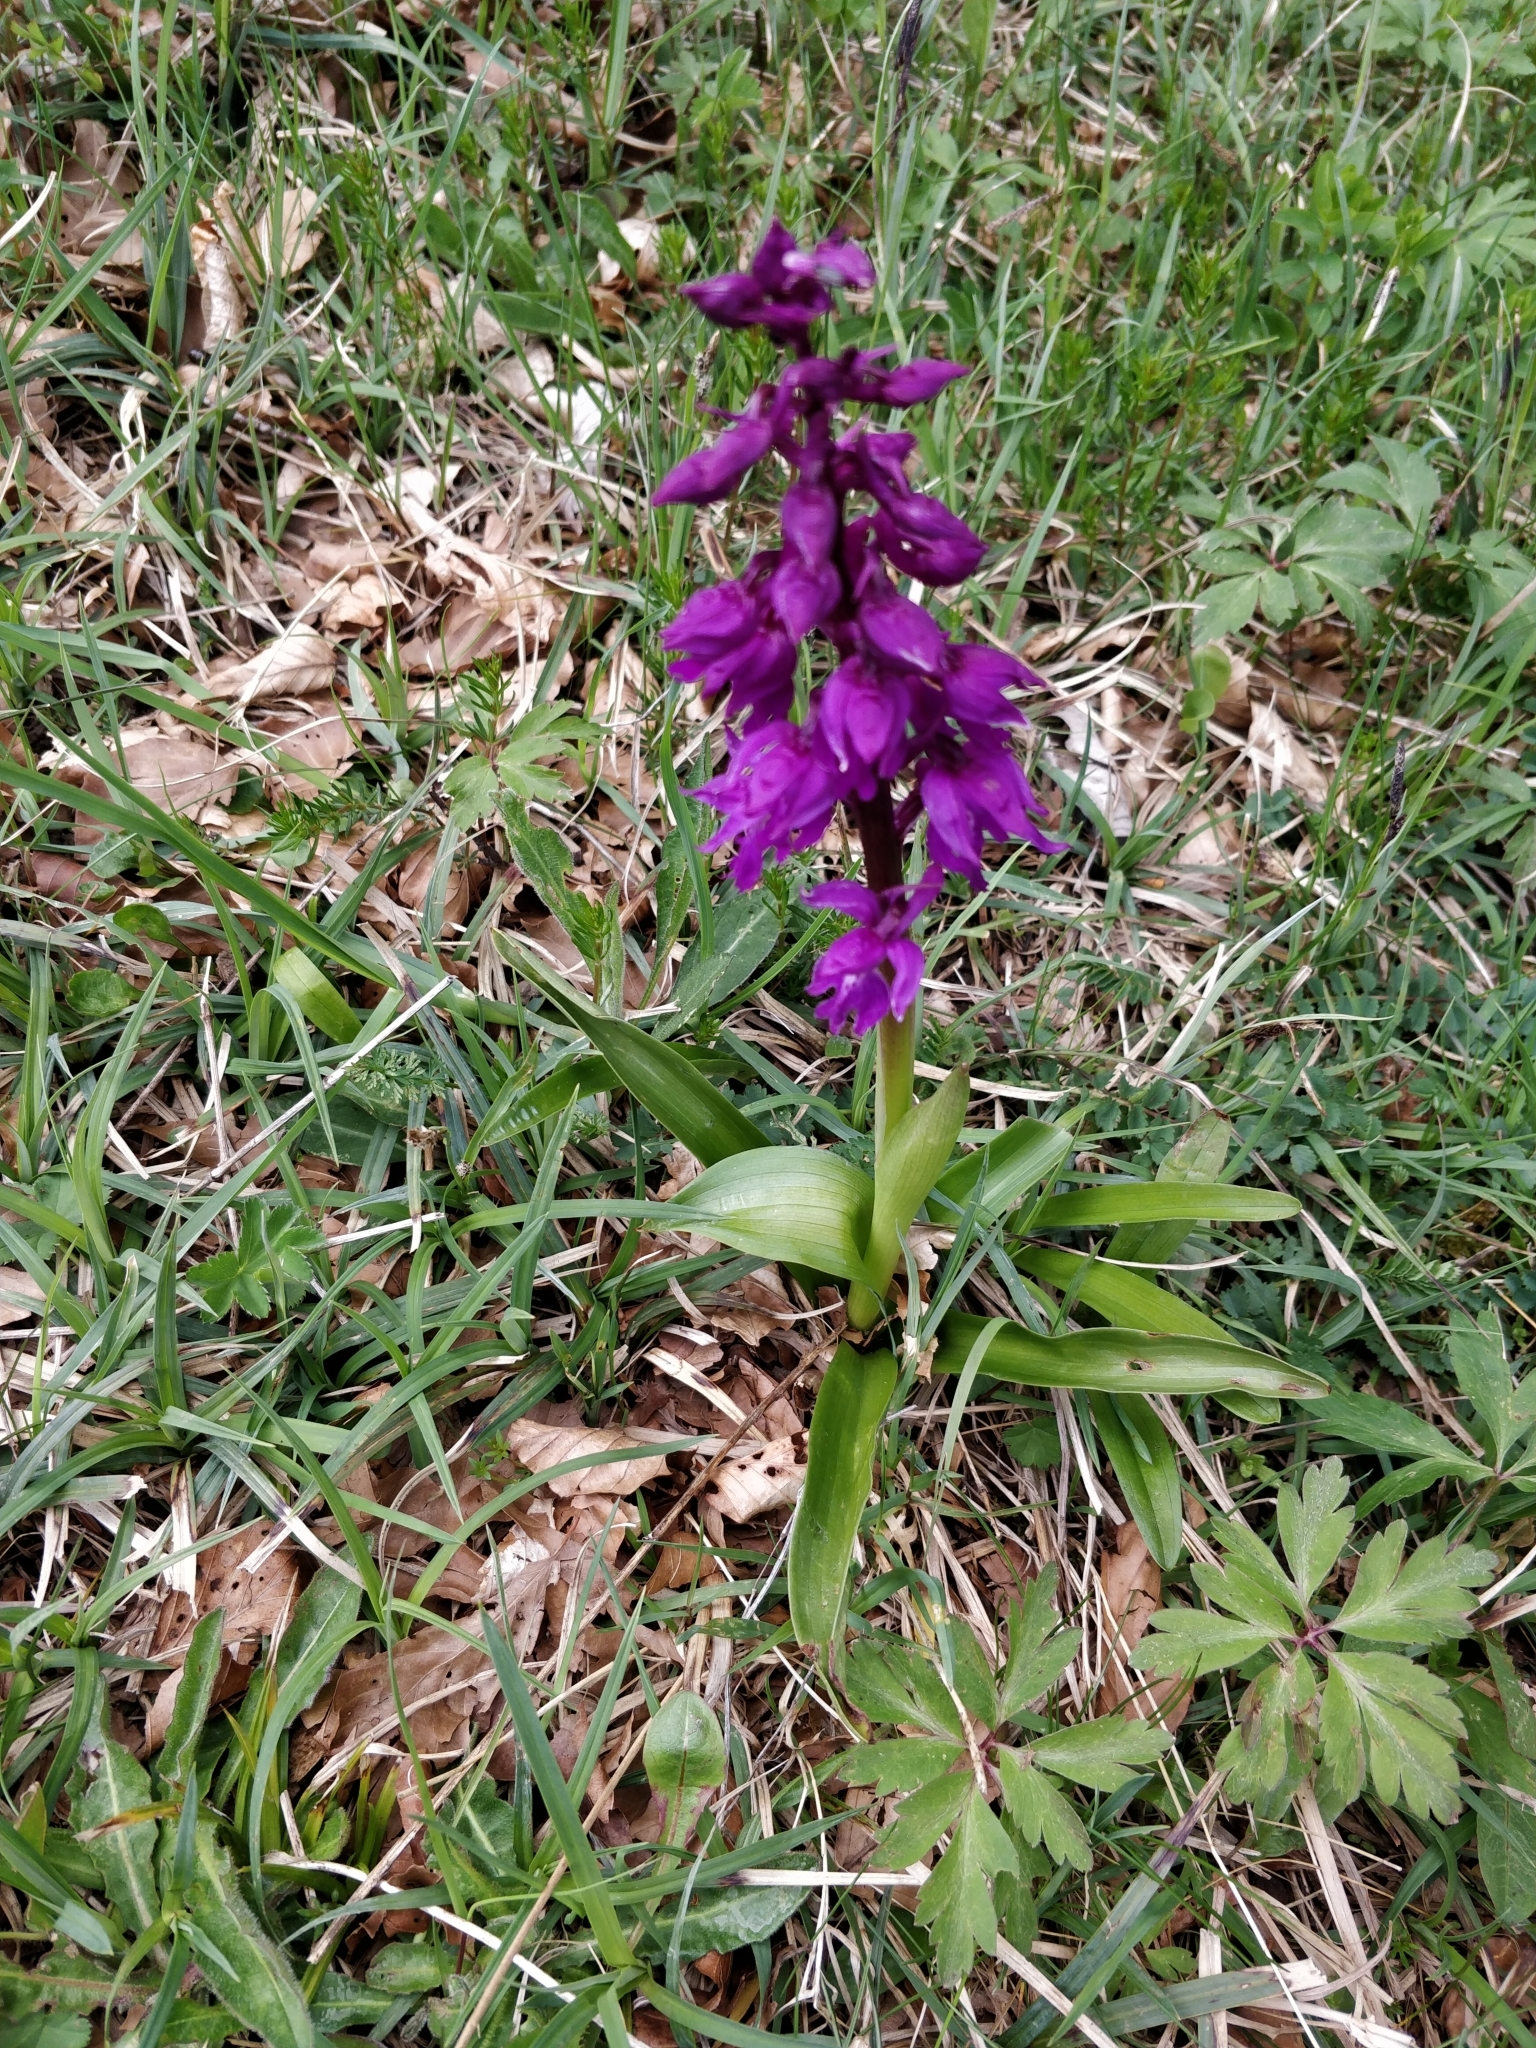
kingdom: Plantae
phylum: Tracheophyta
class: Liliopsida
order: Asparagales
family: Orchidaceae
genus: Orchis
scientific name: Orchis mascula
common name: Early-purple orchid
